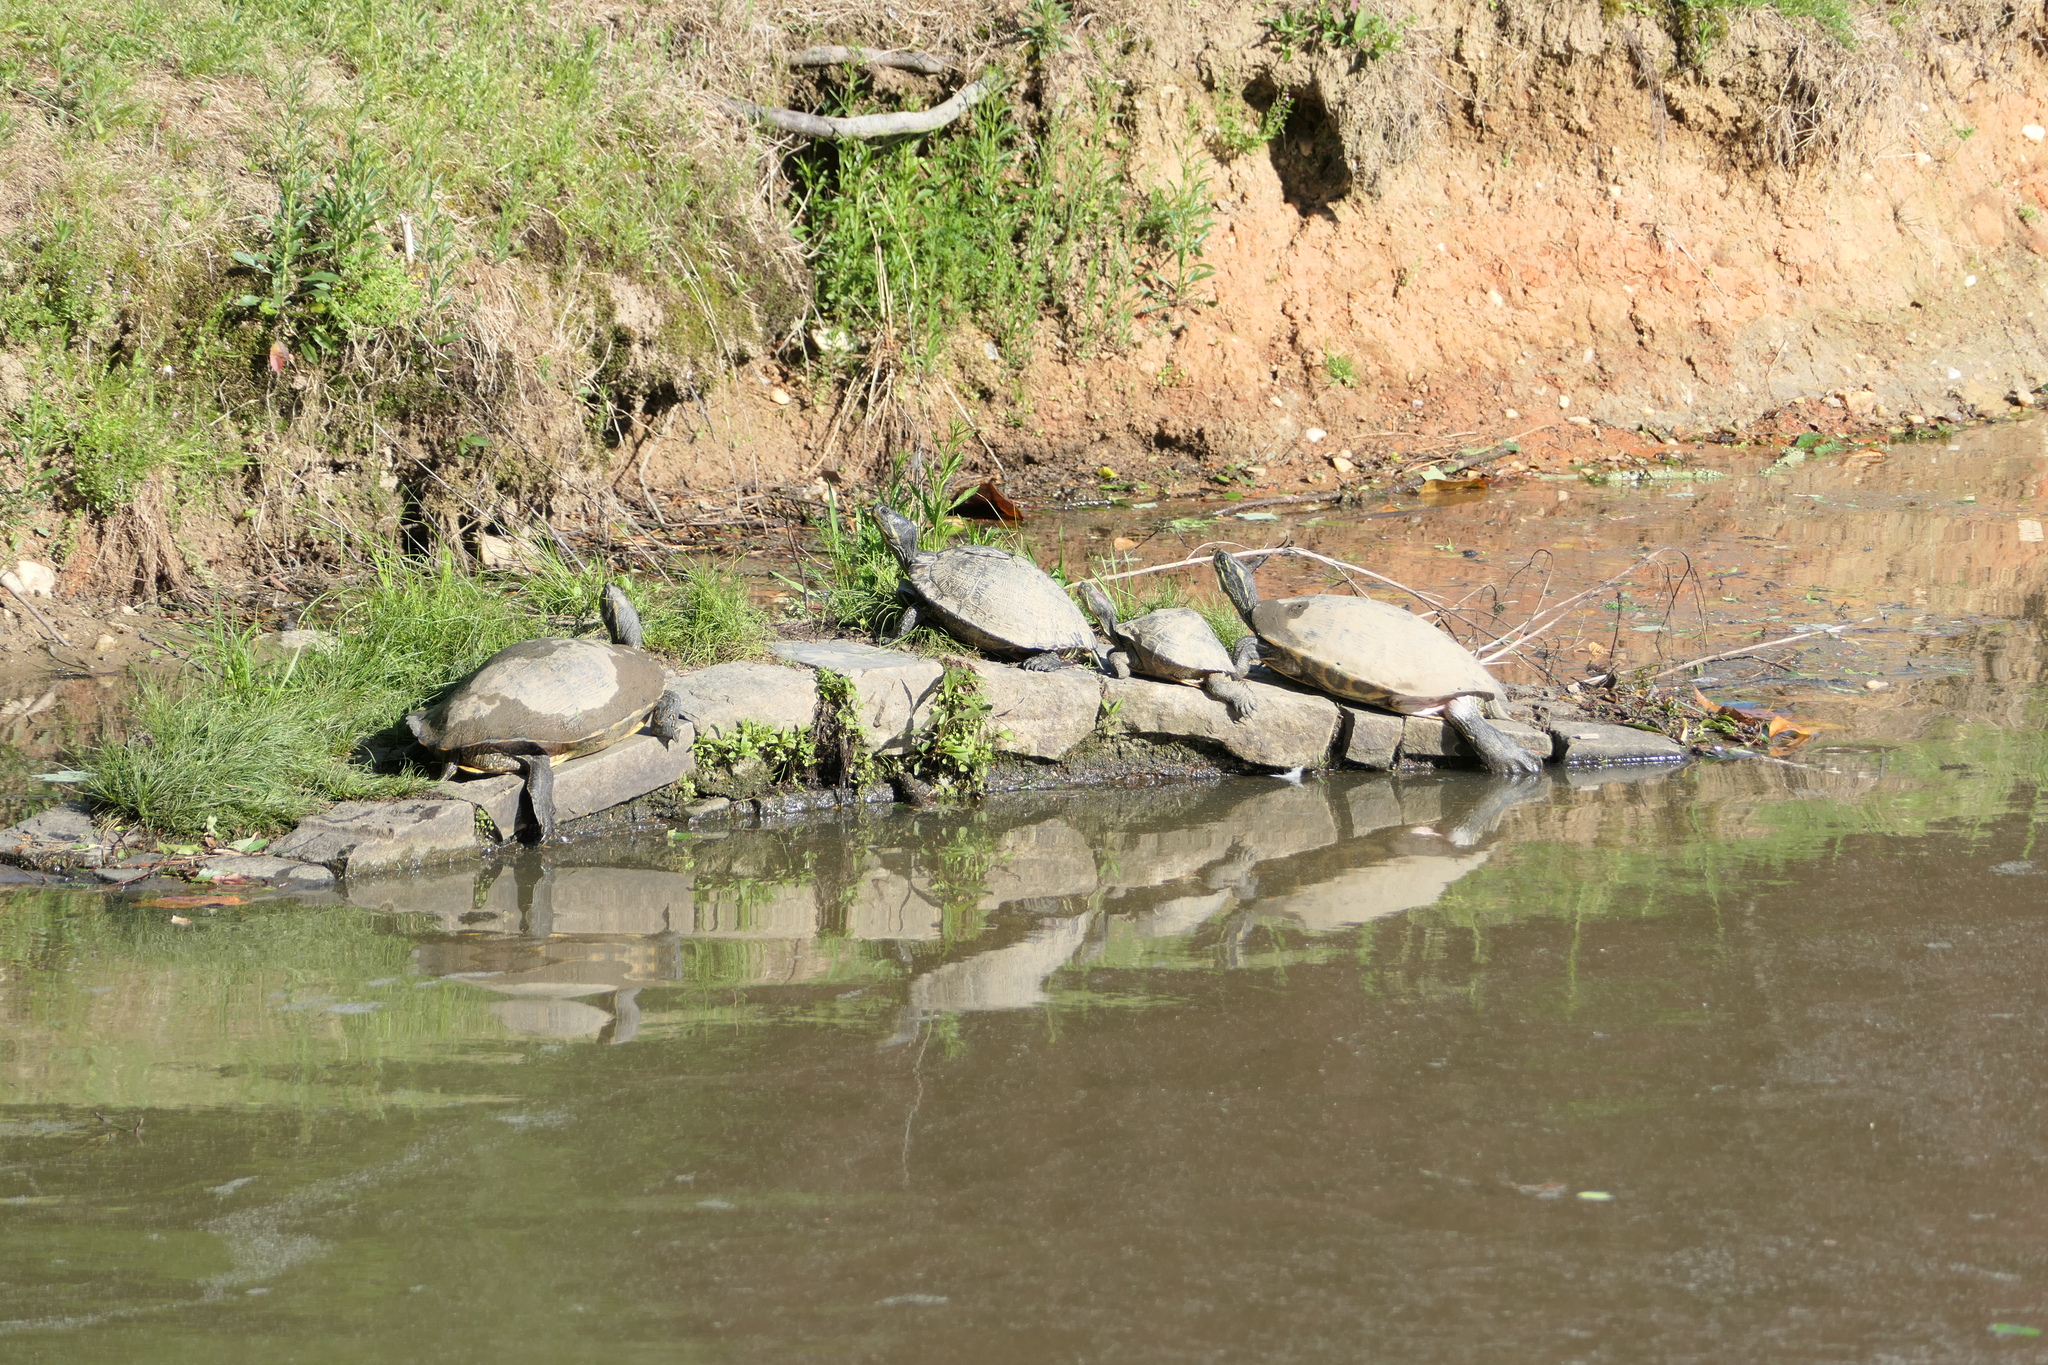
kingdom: Animalia
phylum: Chordata
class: Testudines
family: Emydidae
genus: Trachemys
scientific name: Trachemys scripta
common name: Slider
